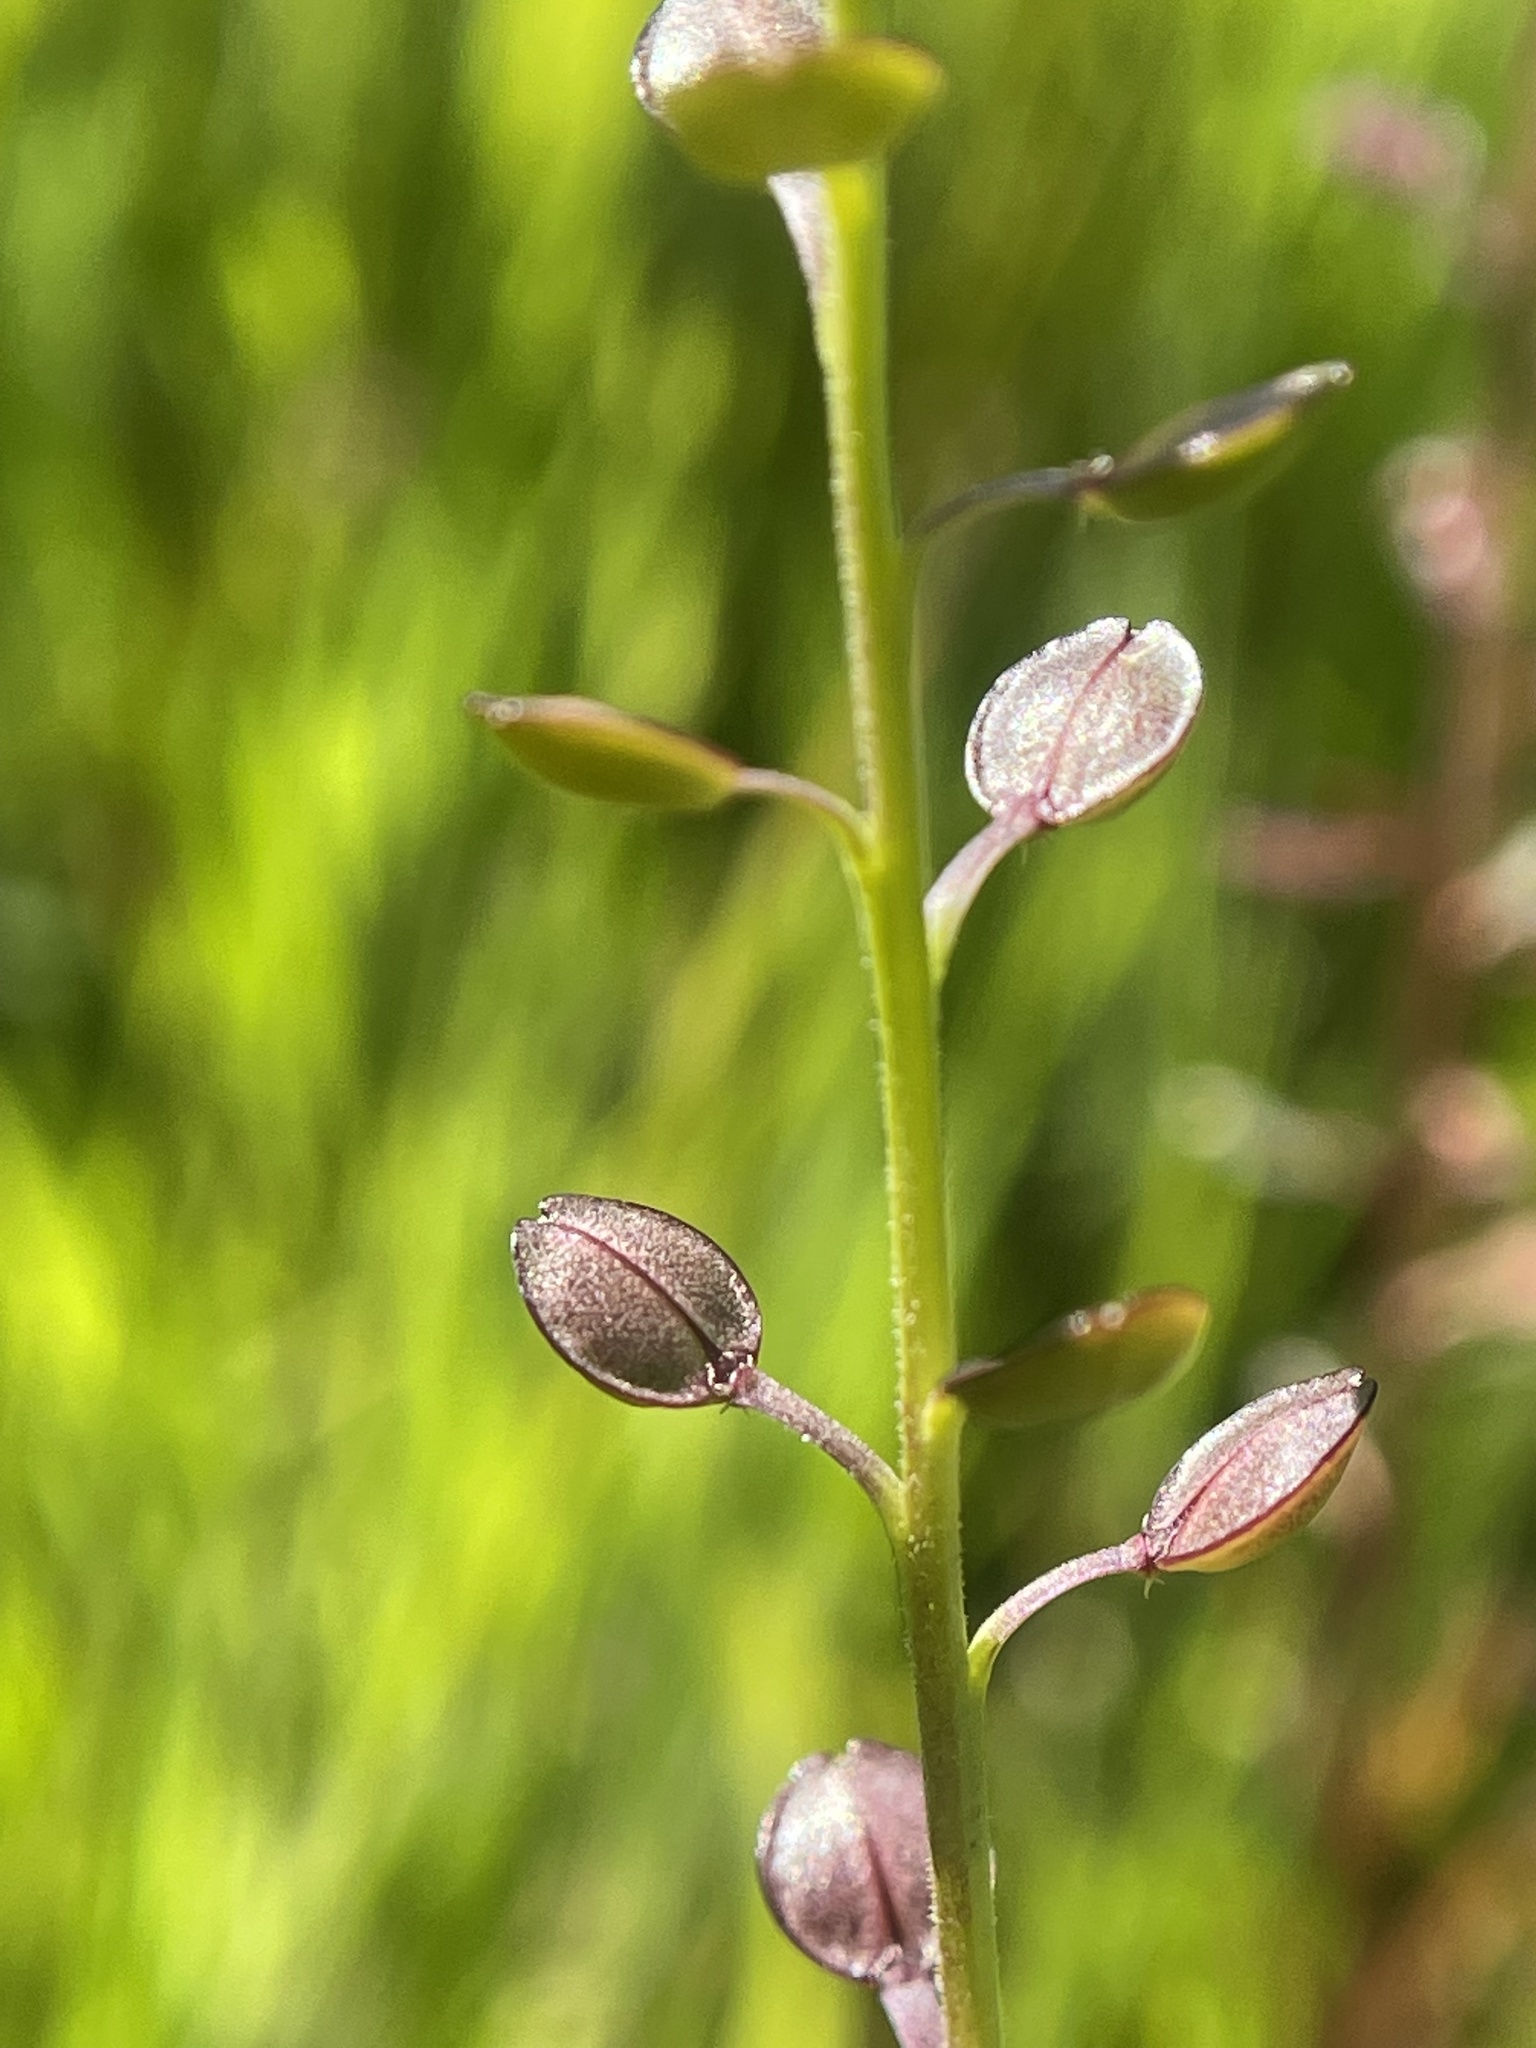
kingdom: Plantae
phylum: Tracheophyta
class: Magnoliopsida
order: Brassicales
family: Brassicaceae
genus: Lepidium
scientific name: Lepidium nitidum
